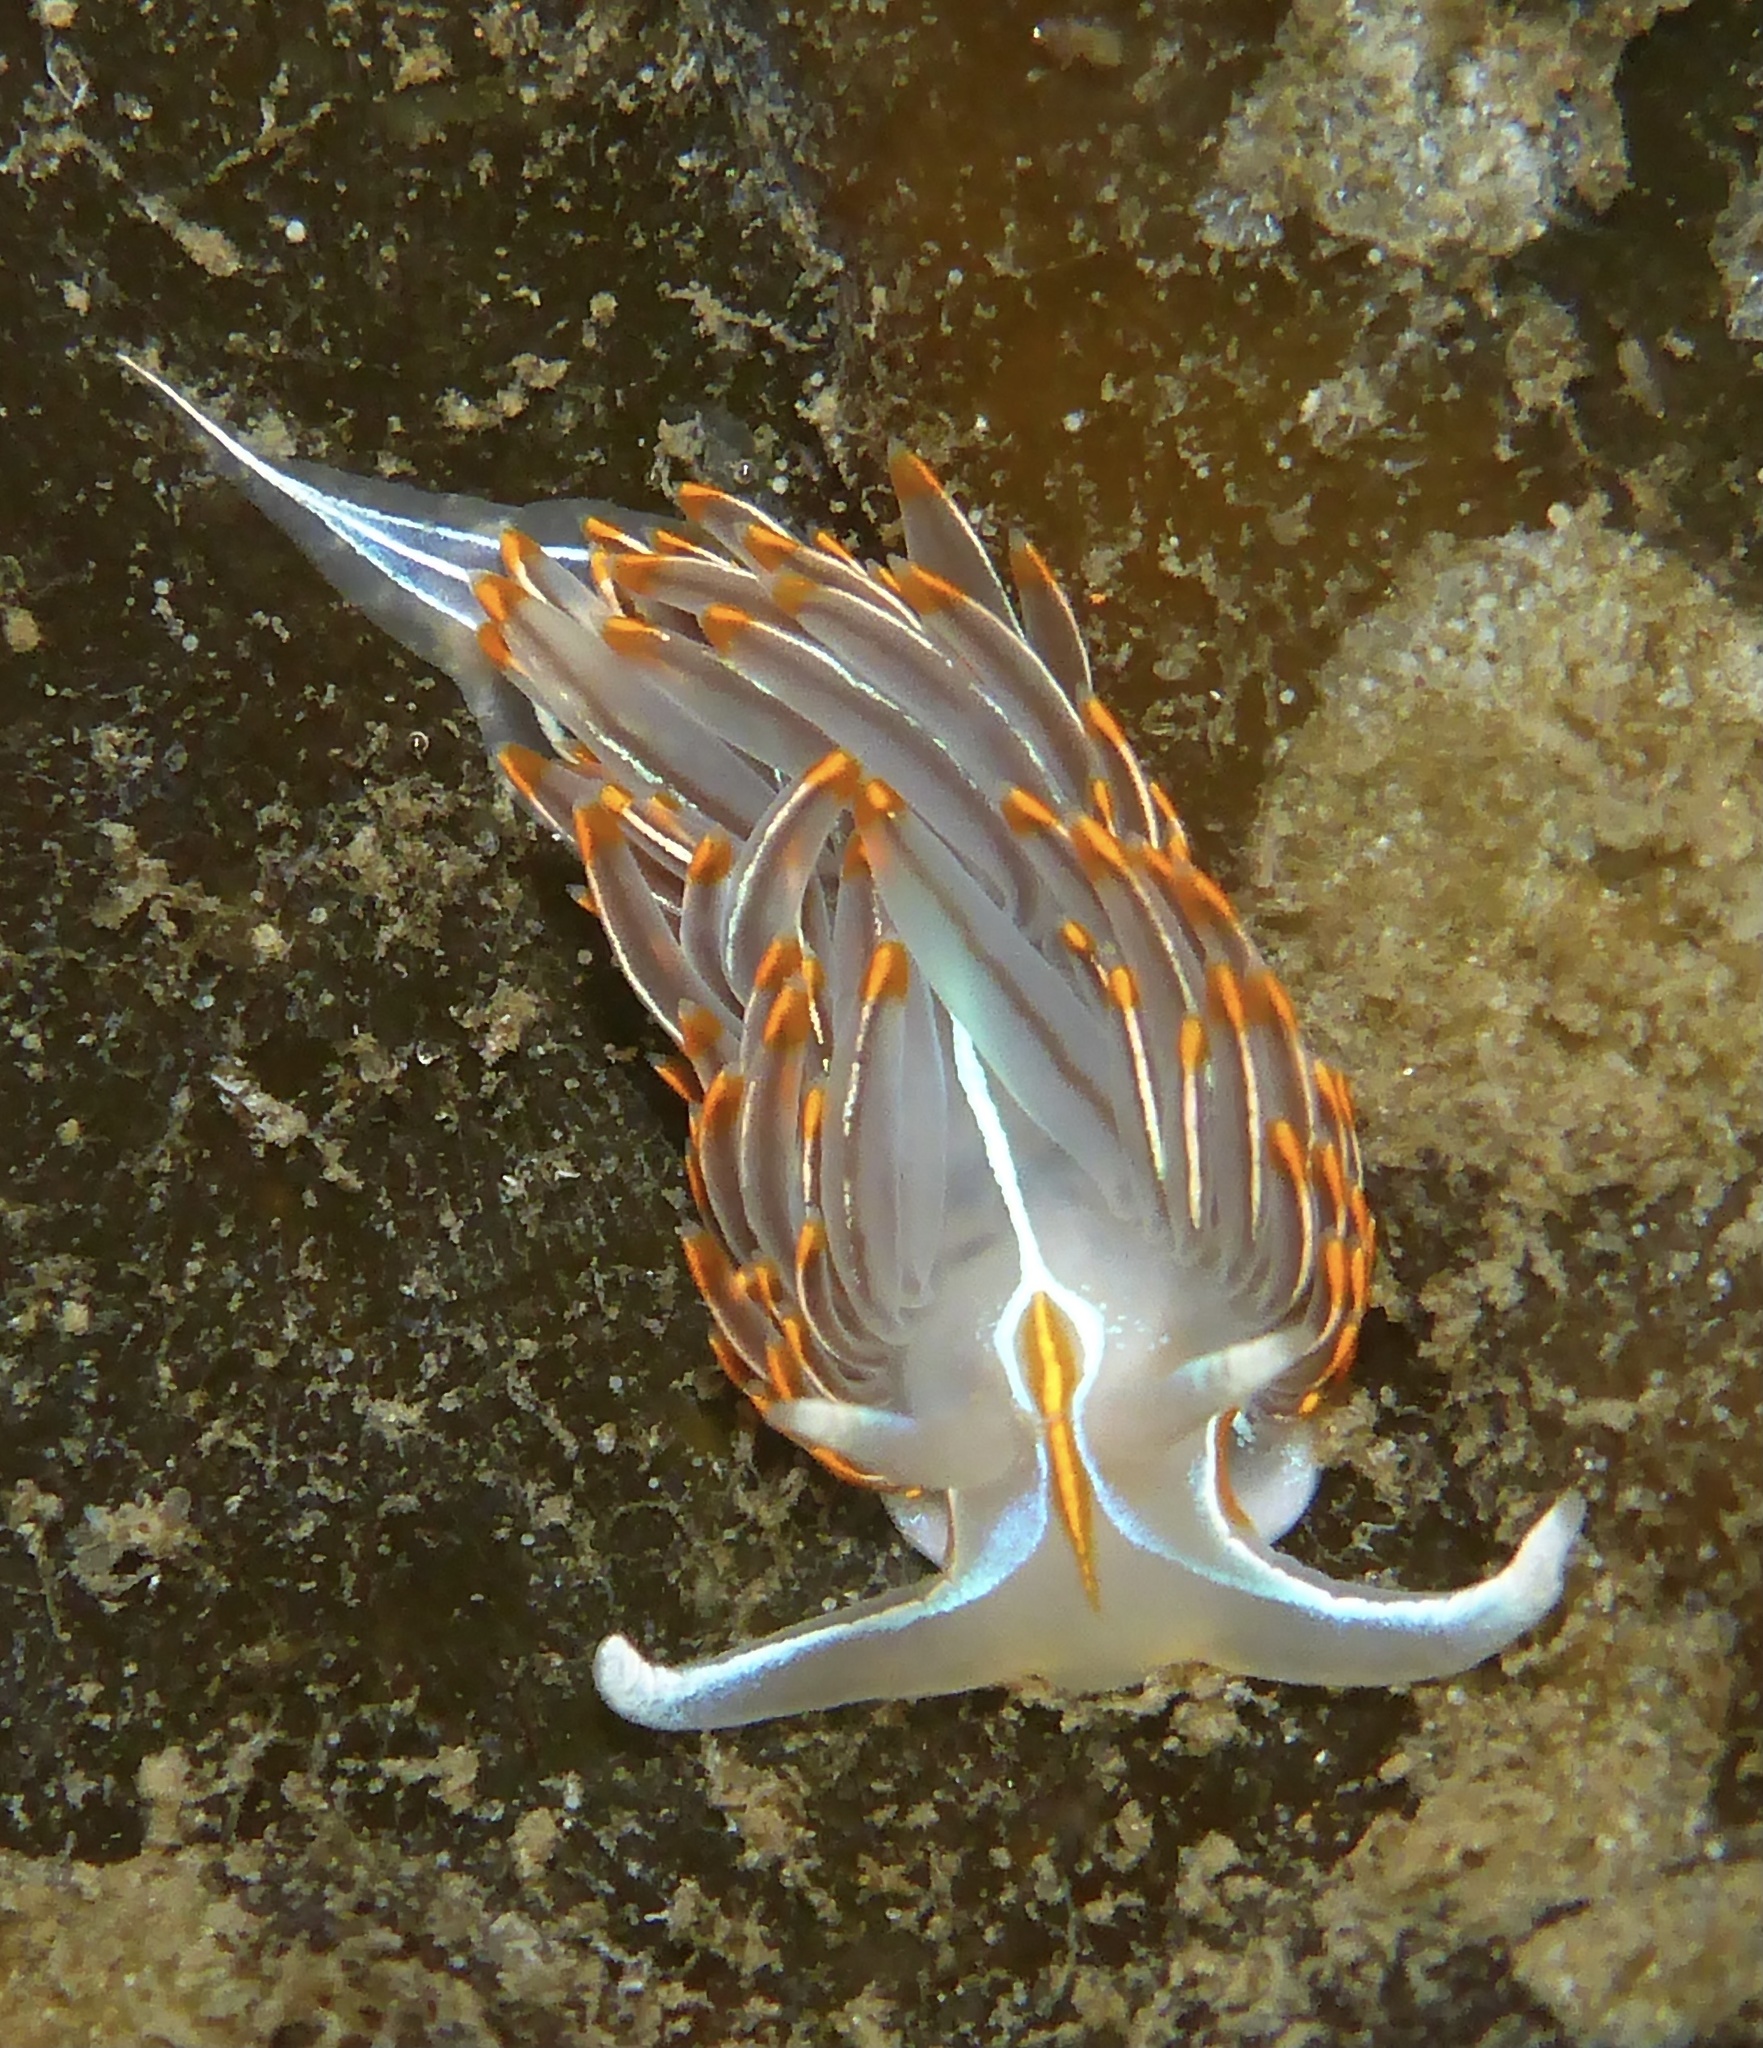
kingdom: Animalia
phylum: Mollusca
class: Gastropoda
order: Nudibranchia
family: Myrrhinidae
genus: Hermissenda
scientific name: Hermissenda crassicornis
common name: Hermissenda
